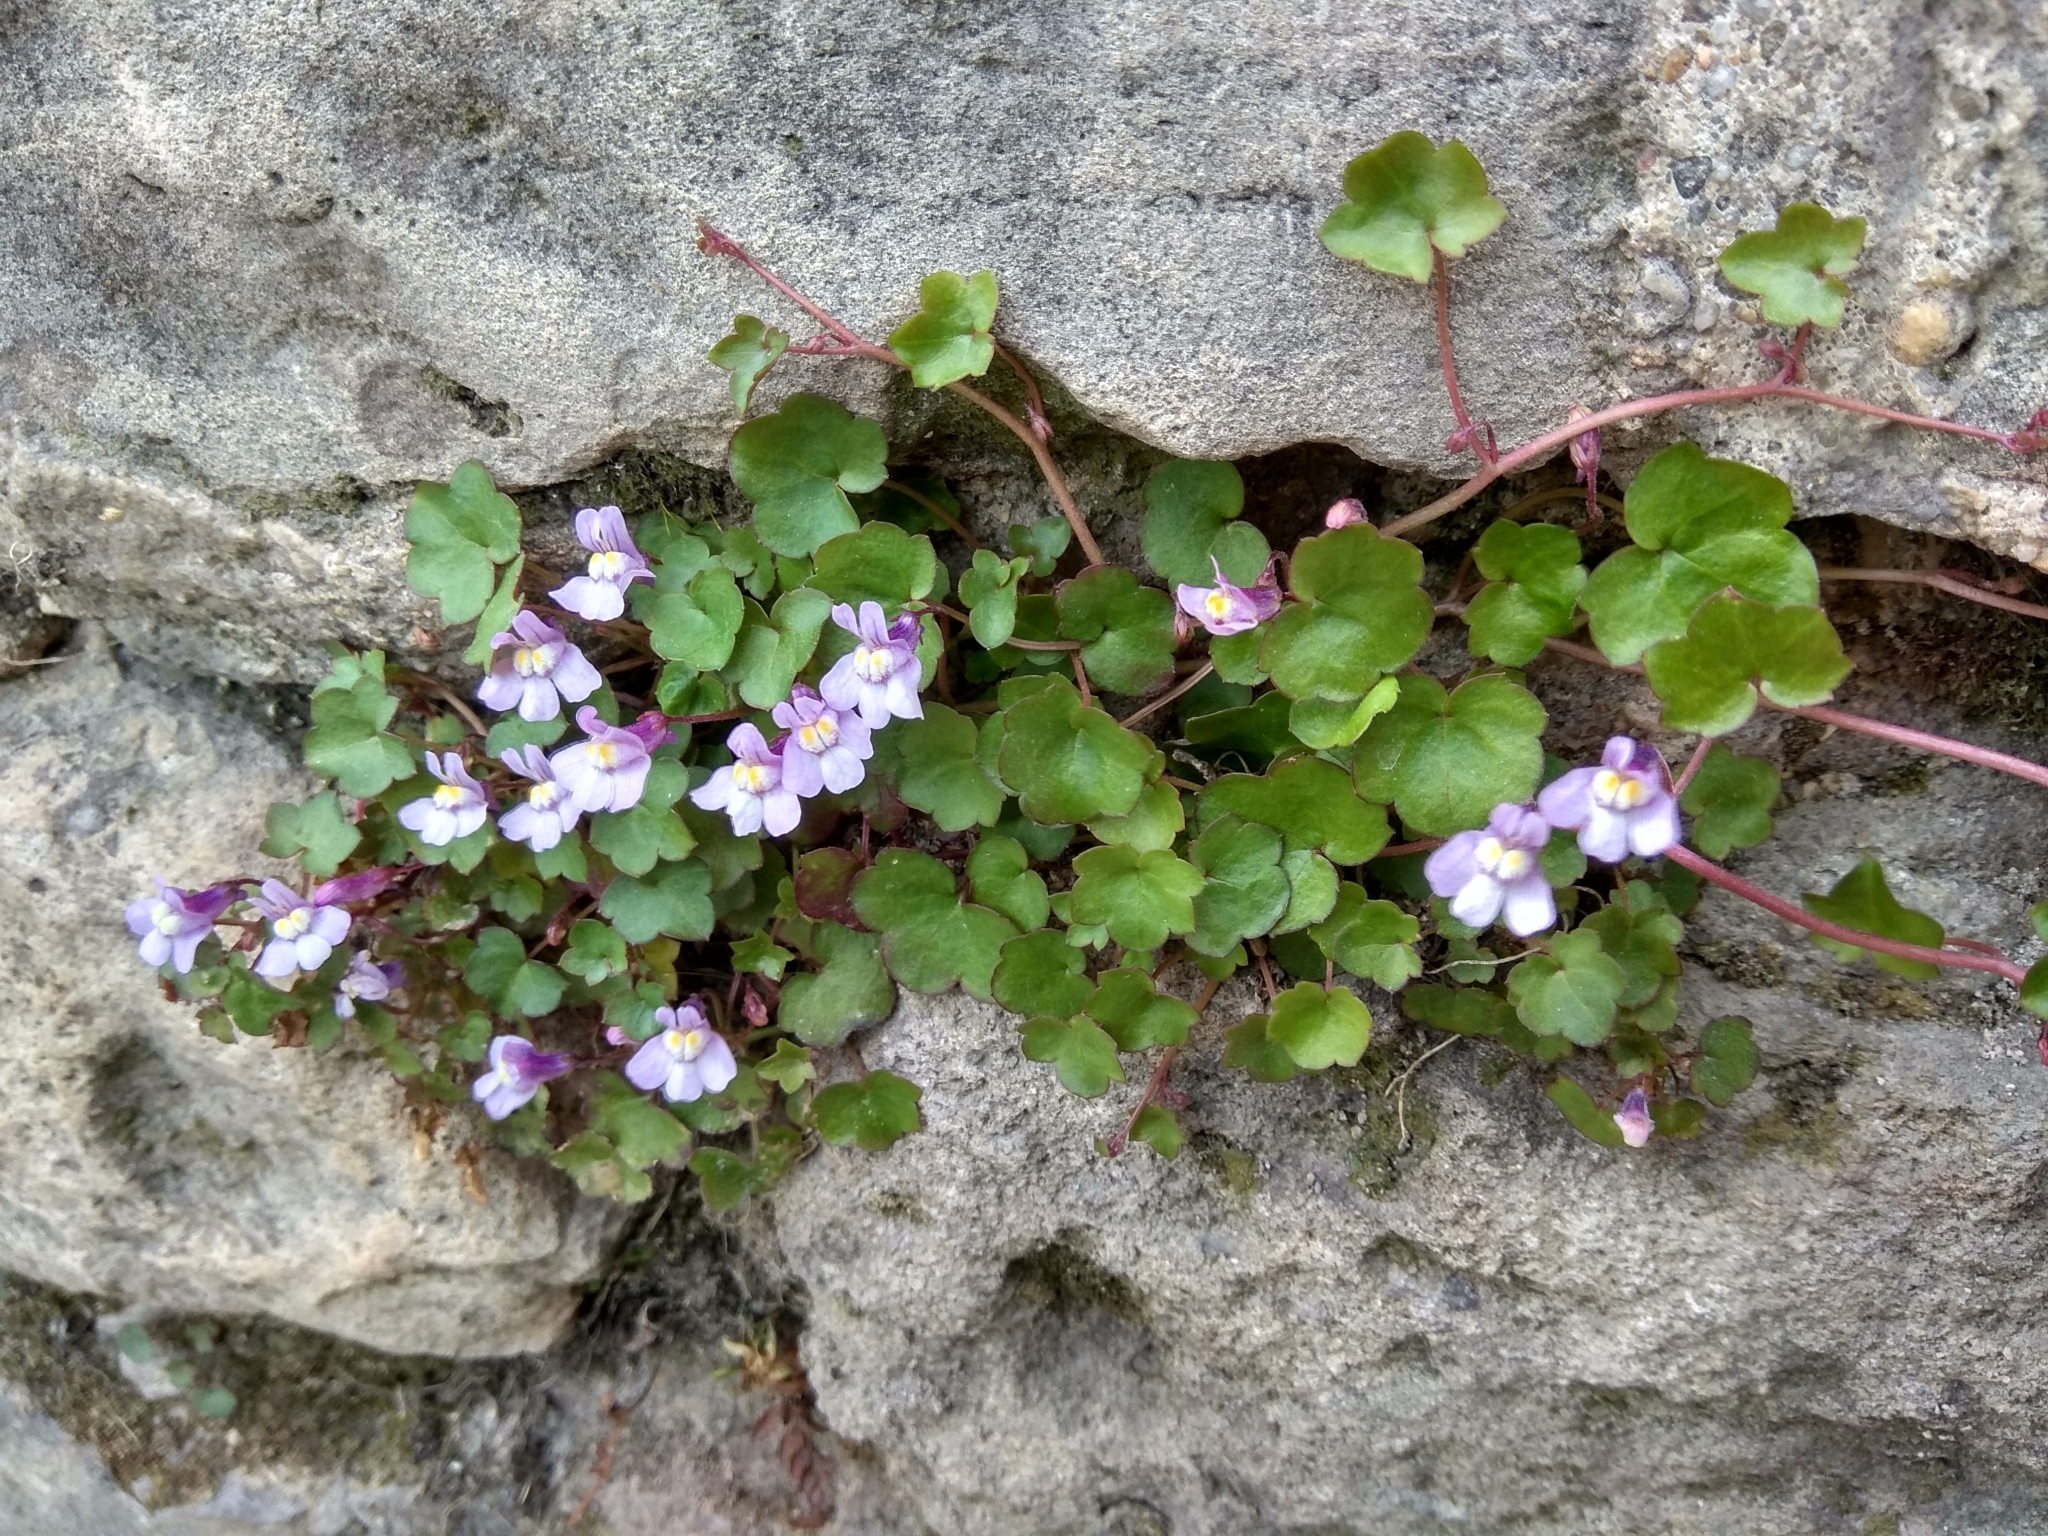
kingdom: Plantae
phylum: Tracheophyta
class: Magnoliopsida
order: Lamiales
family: Plantaginaceae
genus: Cymbalaria
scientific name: Cymbalaria muralis
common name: Ivy-leaved toadflax
